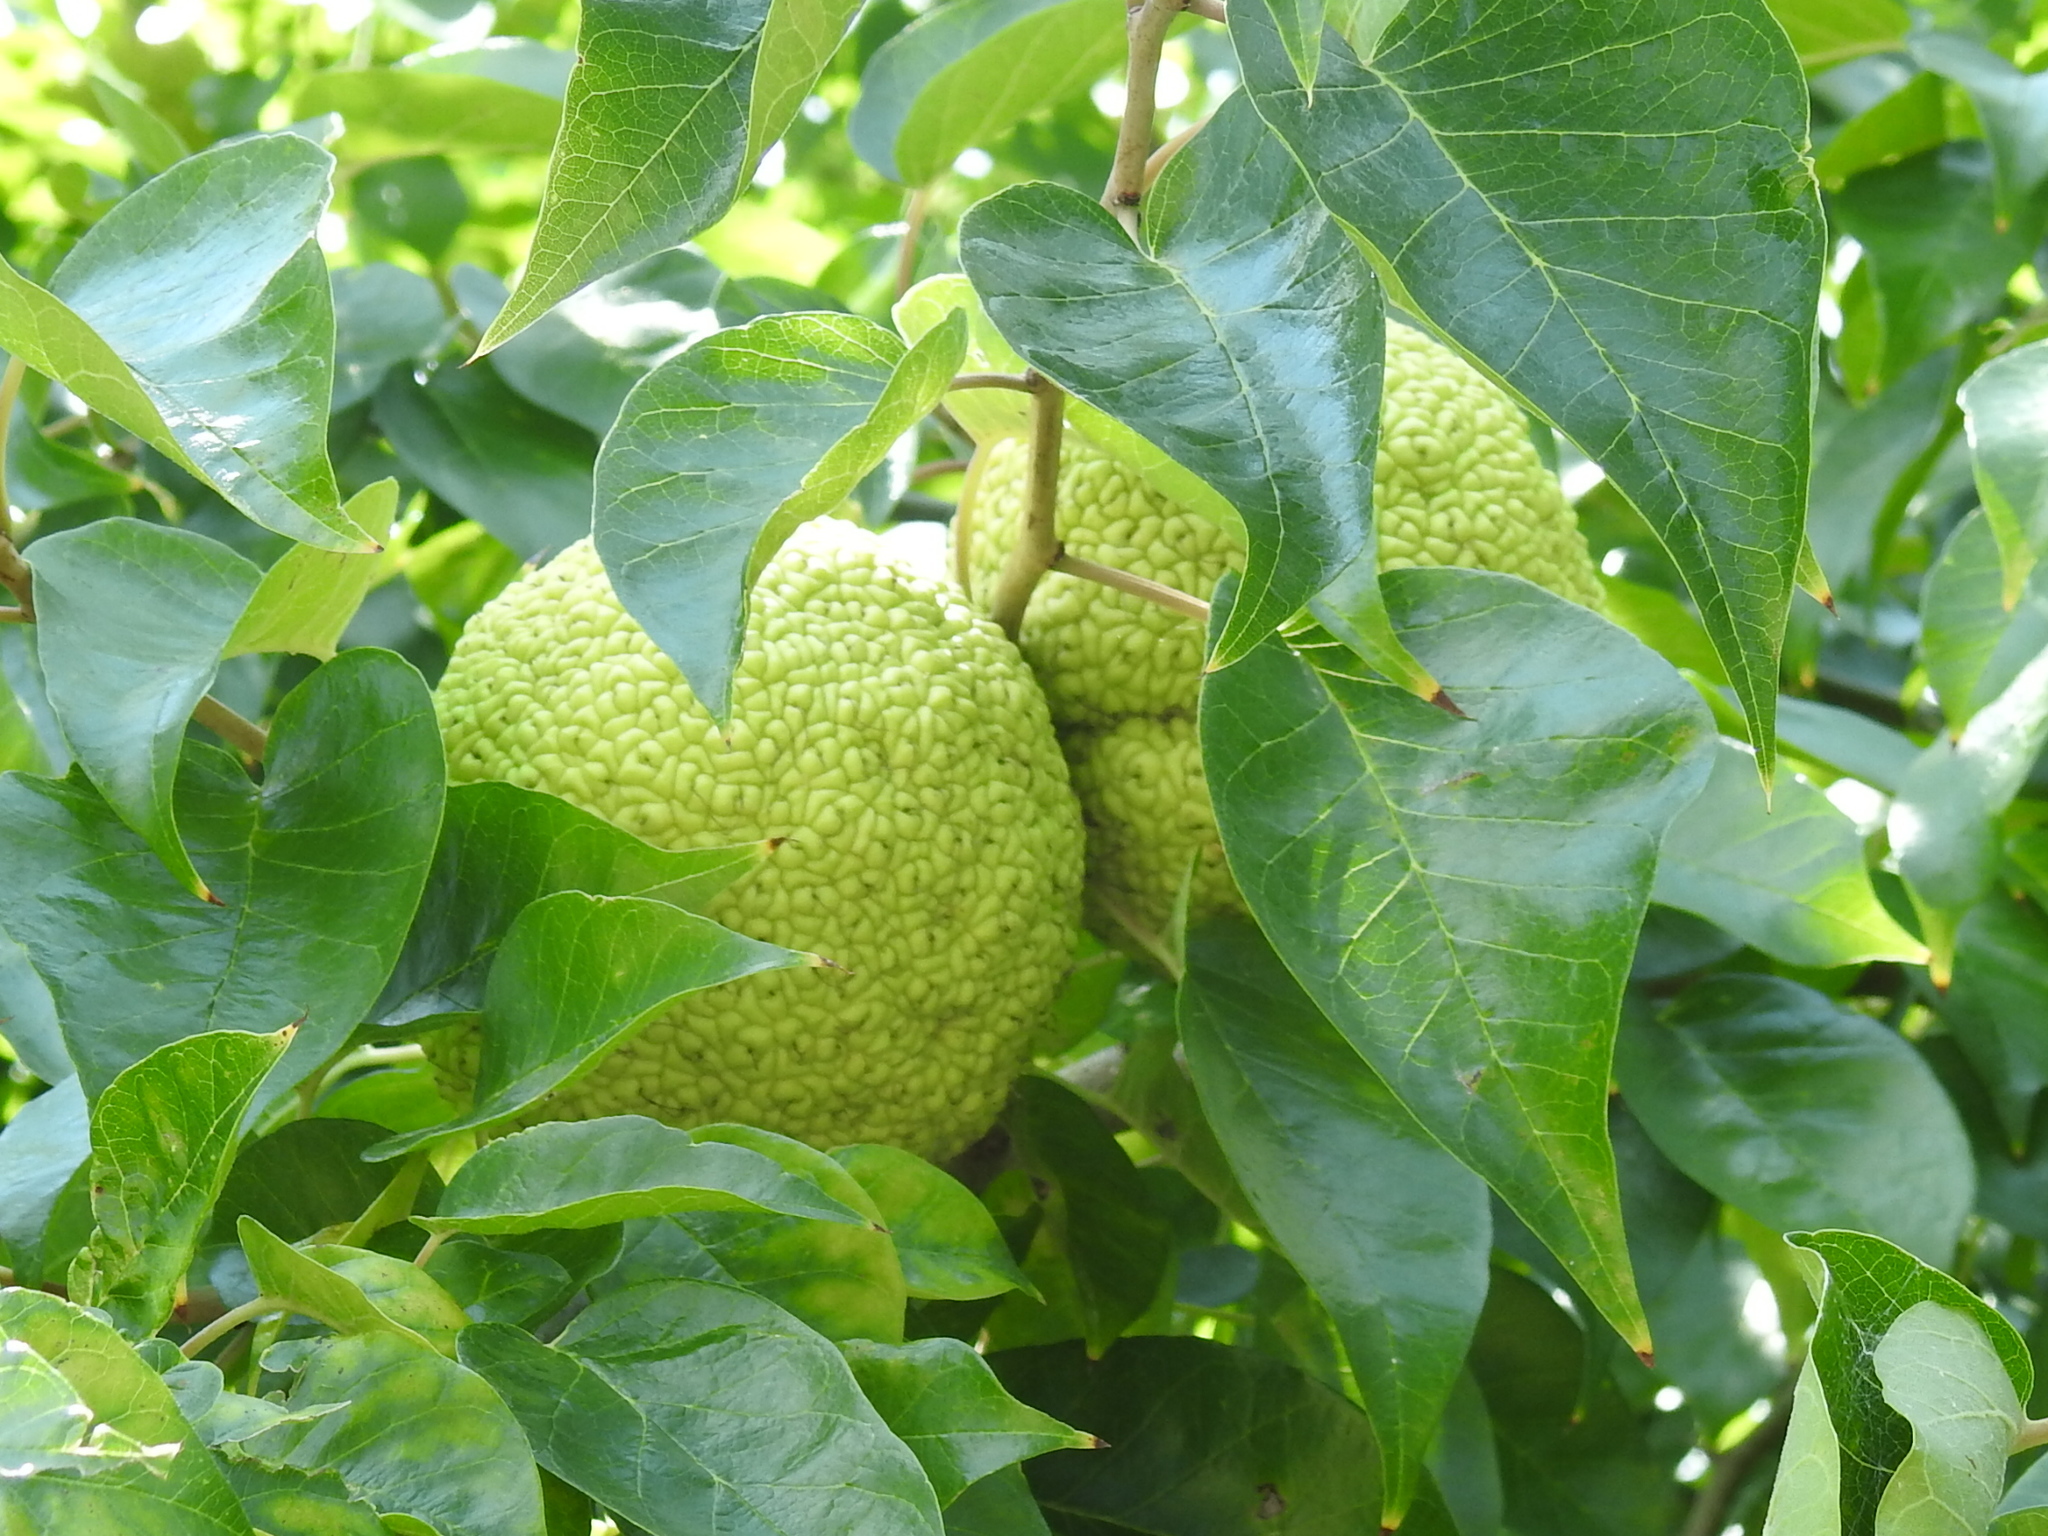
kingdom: Plantae
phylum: Tracheophyta
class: Magnoliopsida
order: Rosales
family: Moraceae
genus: Maclura
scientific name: Maclura pomifera
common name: Osage-orange
